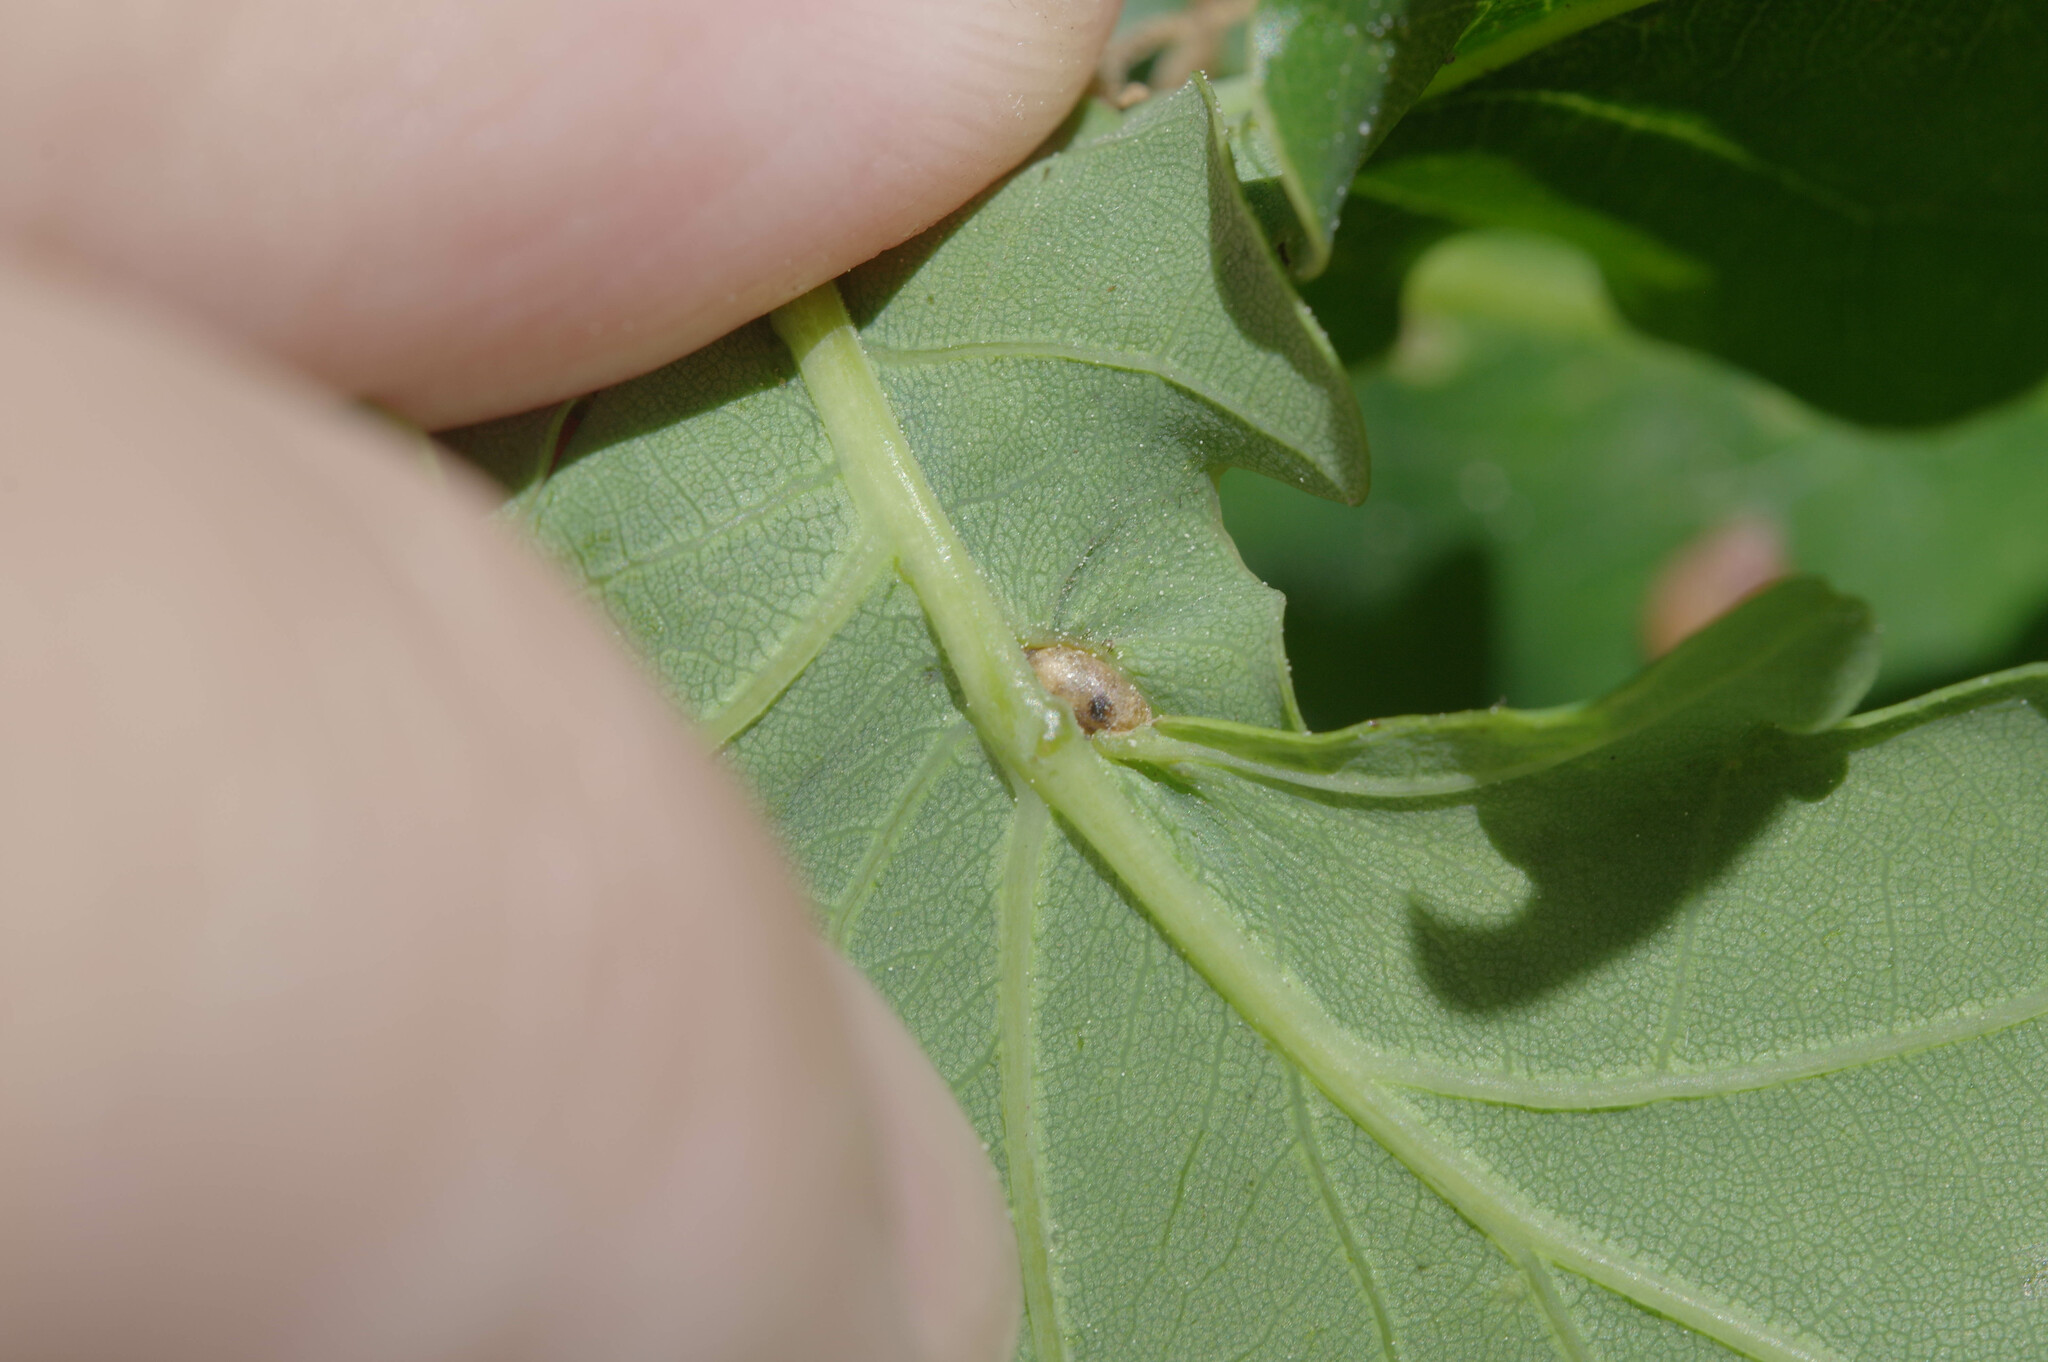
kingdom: Animalia
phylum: Arthropoda
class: Insecta
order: Hymenoptera
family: Cynipidae
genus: Neuroterus
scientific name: Neuroterus albipes
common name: Smooth spangle gall
